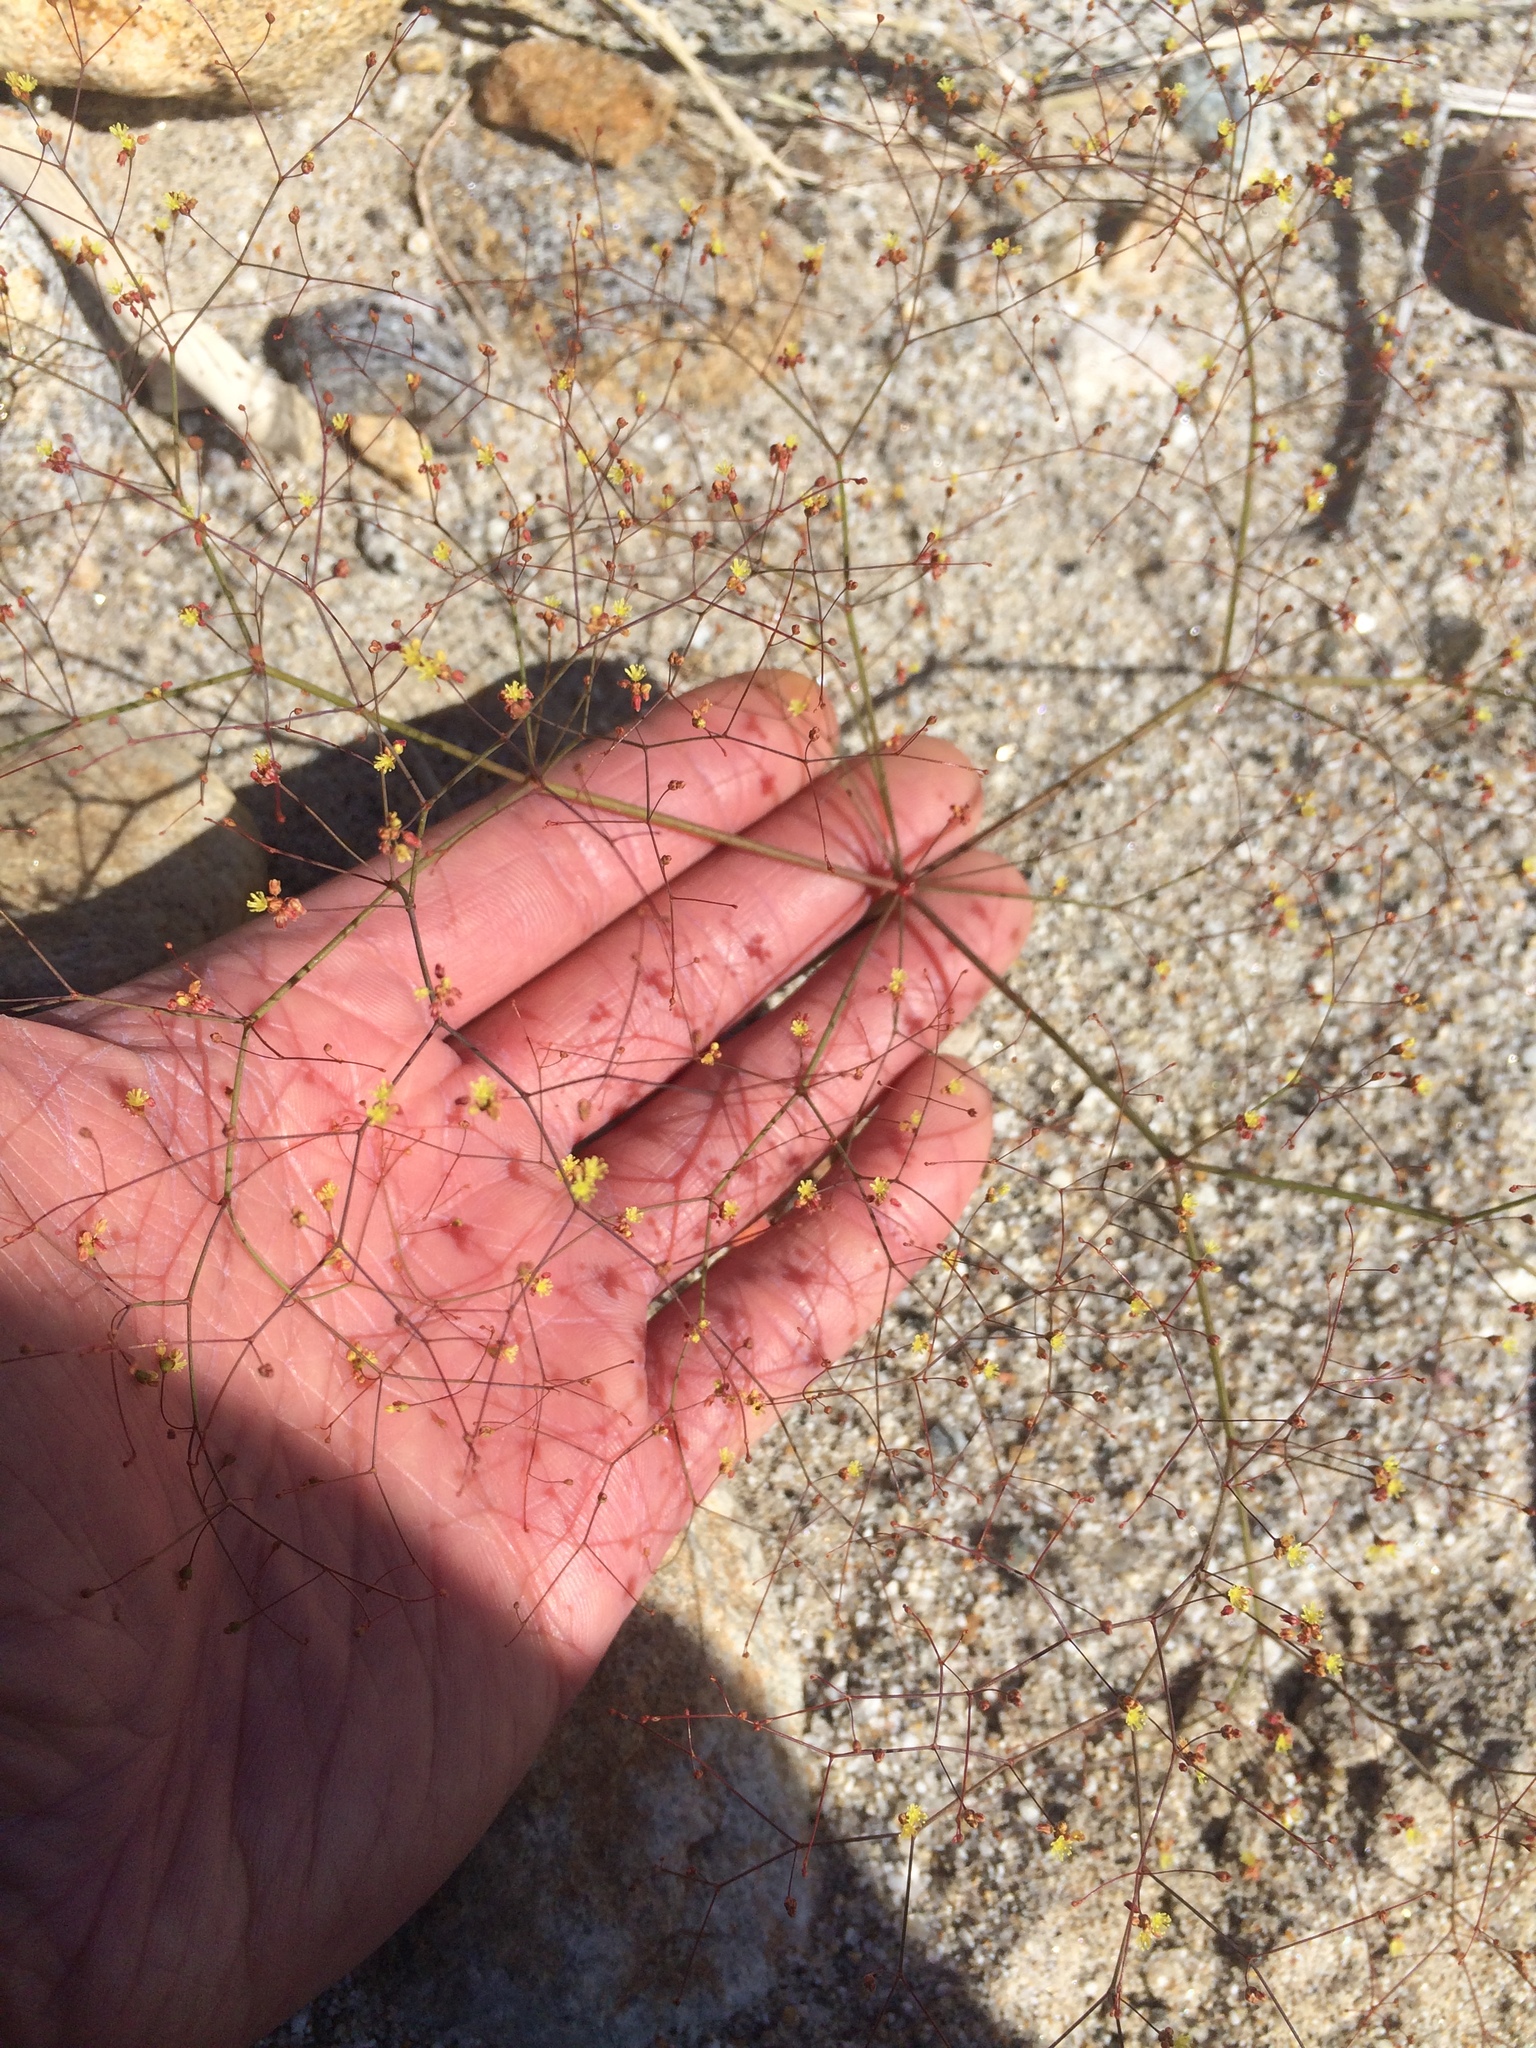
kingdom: Plantae
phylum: Tracheophyta
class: Magnoliopsida
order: Caryophyllales
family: Polygonaceae
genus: Eriogonum
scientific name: Eriogonum thomasii
